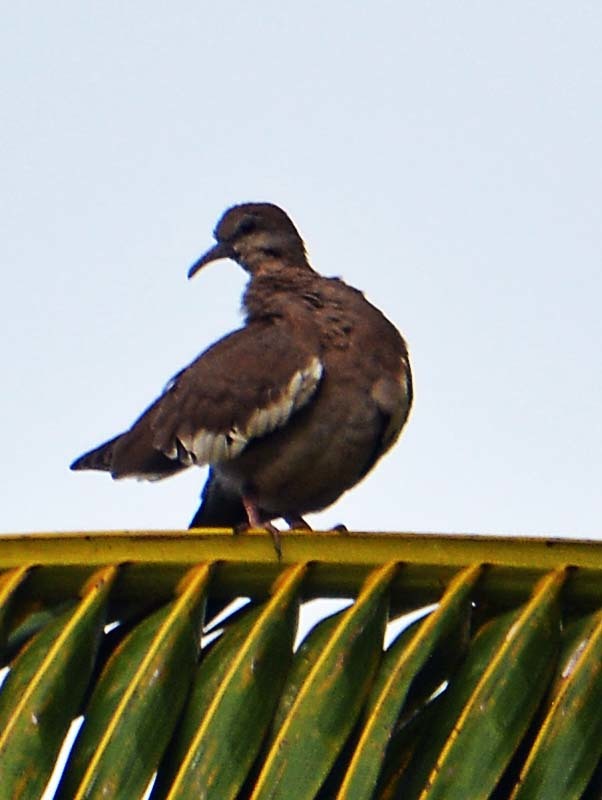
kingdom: Animalia
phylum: Chordata
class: Aves
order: Columbiformes
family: Columbidae
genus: Zenaida
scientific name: Zenaida asiatica
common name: White-winged dove
